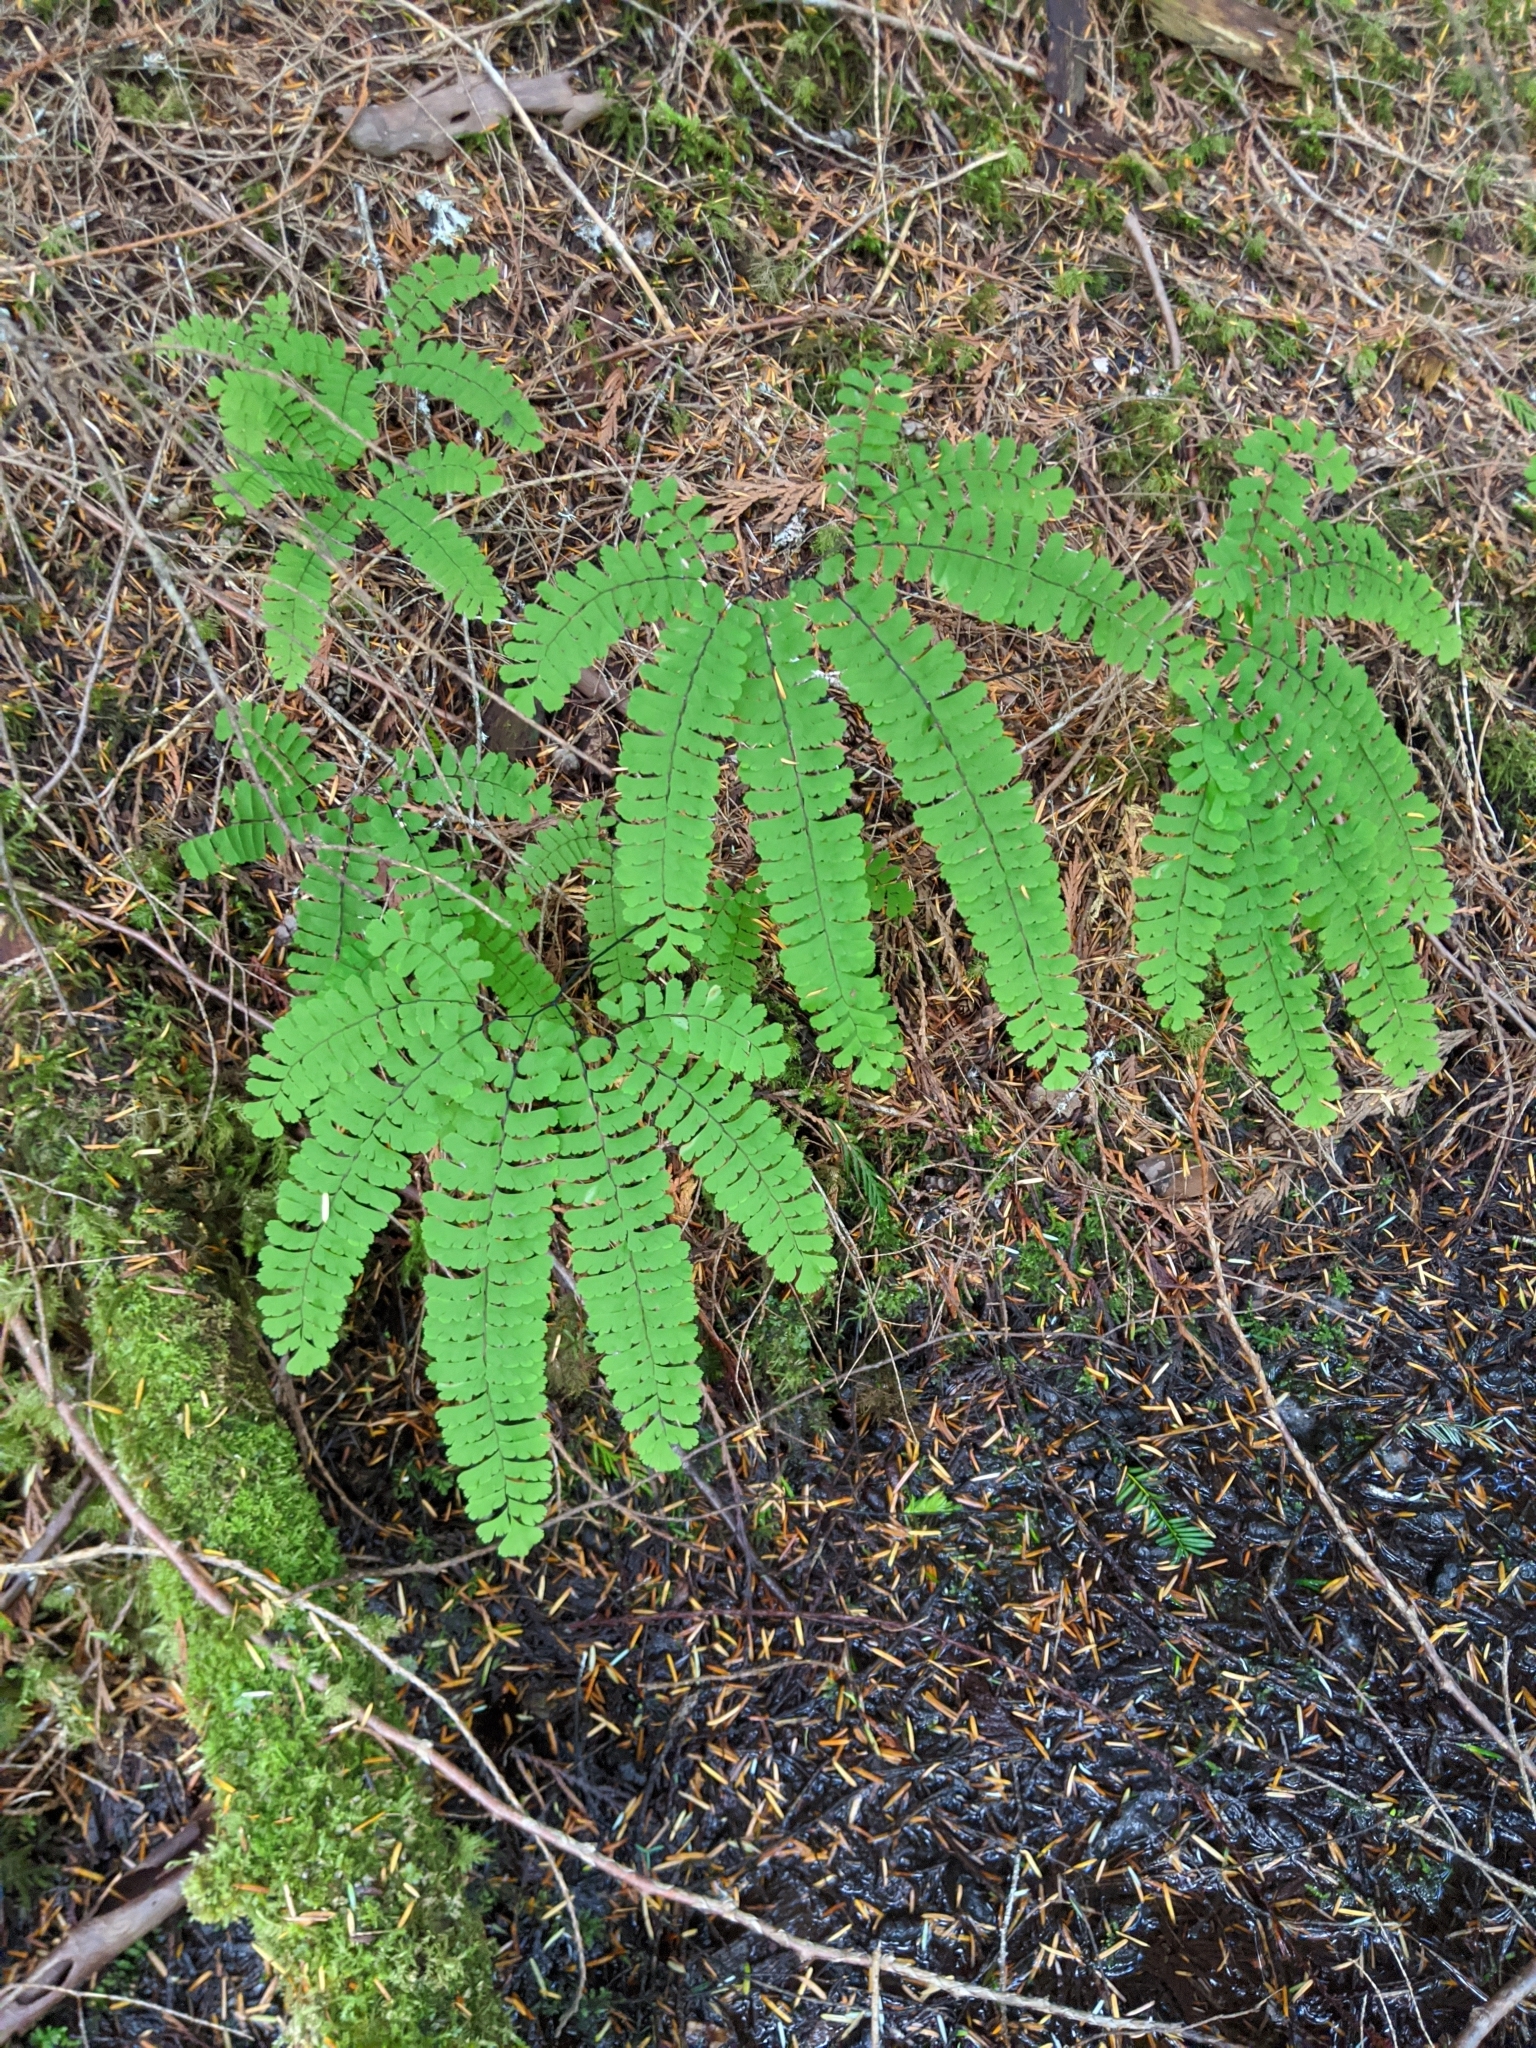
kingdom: Plantae
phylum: Tracheophyta
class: Polypodiopsida
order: Polypodiales
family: Pteridaceae
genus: Adiantum
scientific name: Adiantum aleuticum
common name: Aleutian maidenhair fern
